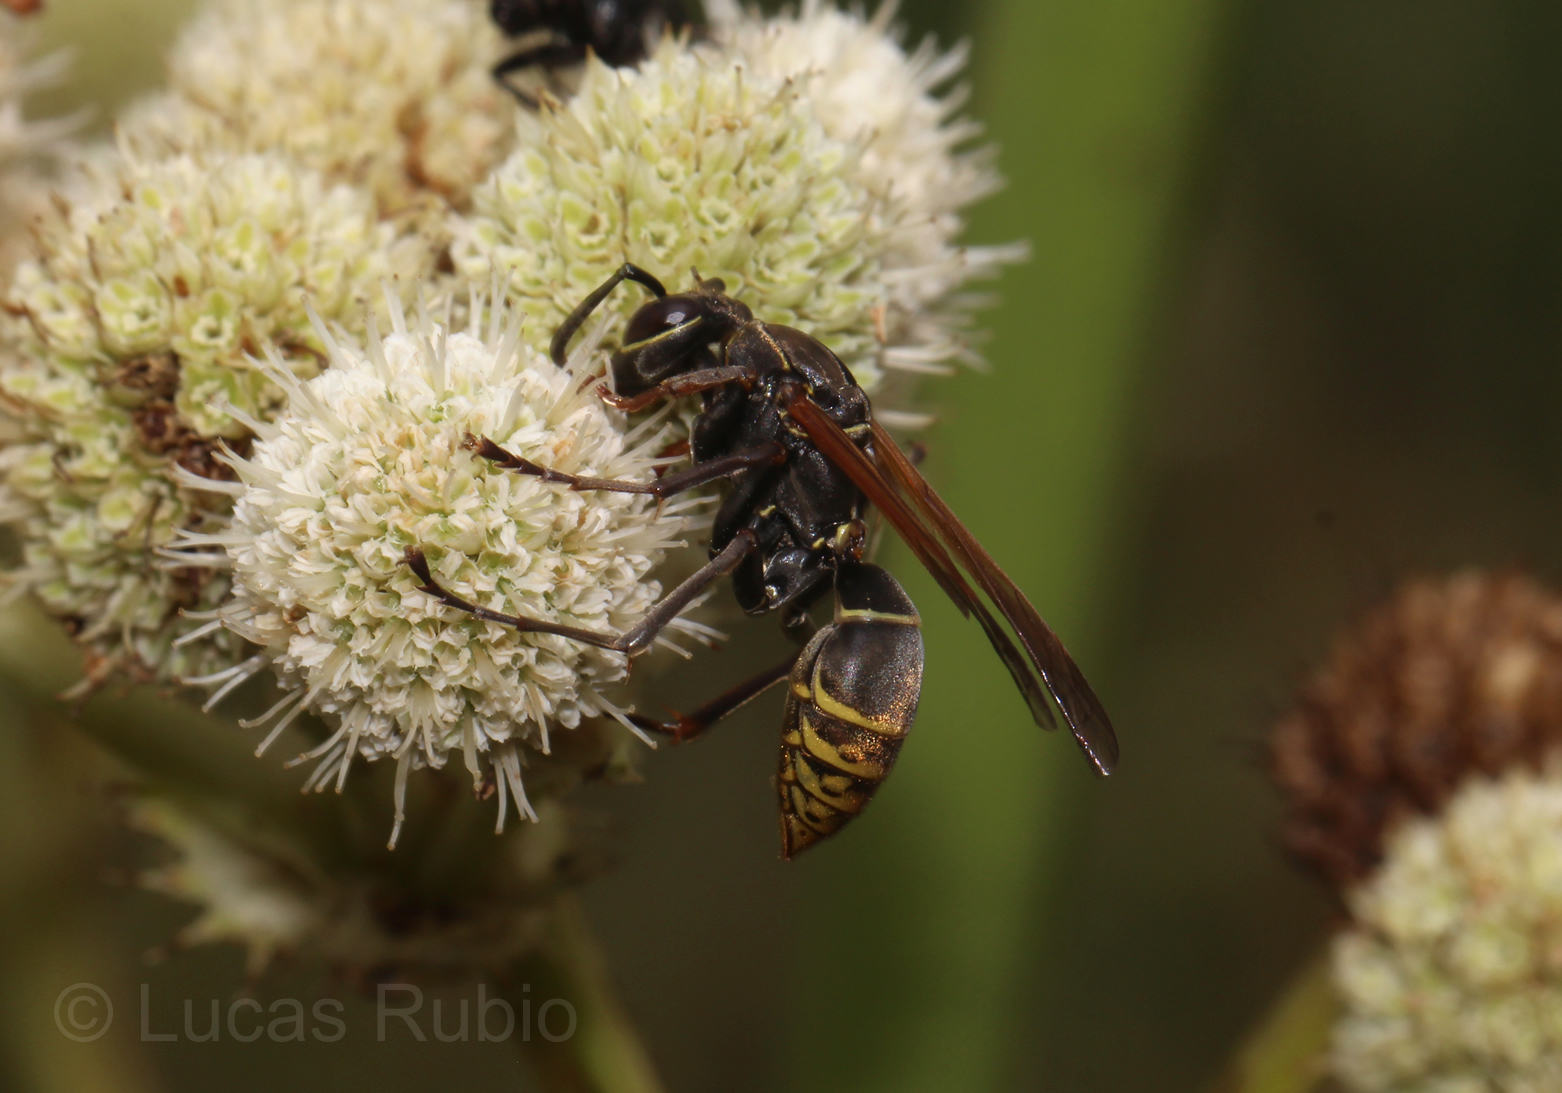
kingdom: Animalia
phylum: Arthropoda
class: Insecta
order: Hymenoptera
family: Eumenidae
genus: Polistes
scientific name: Polistes cinerascens
